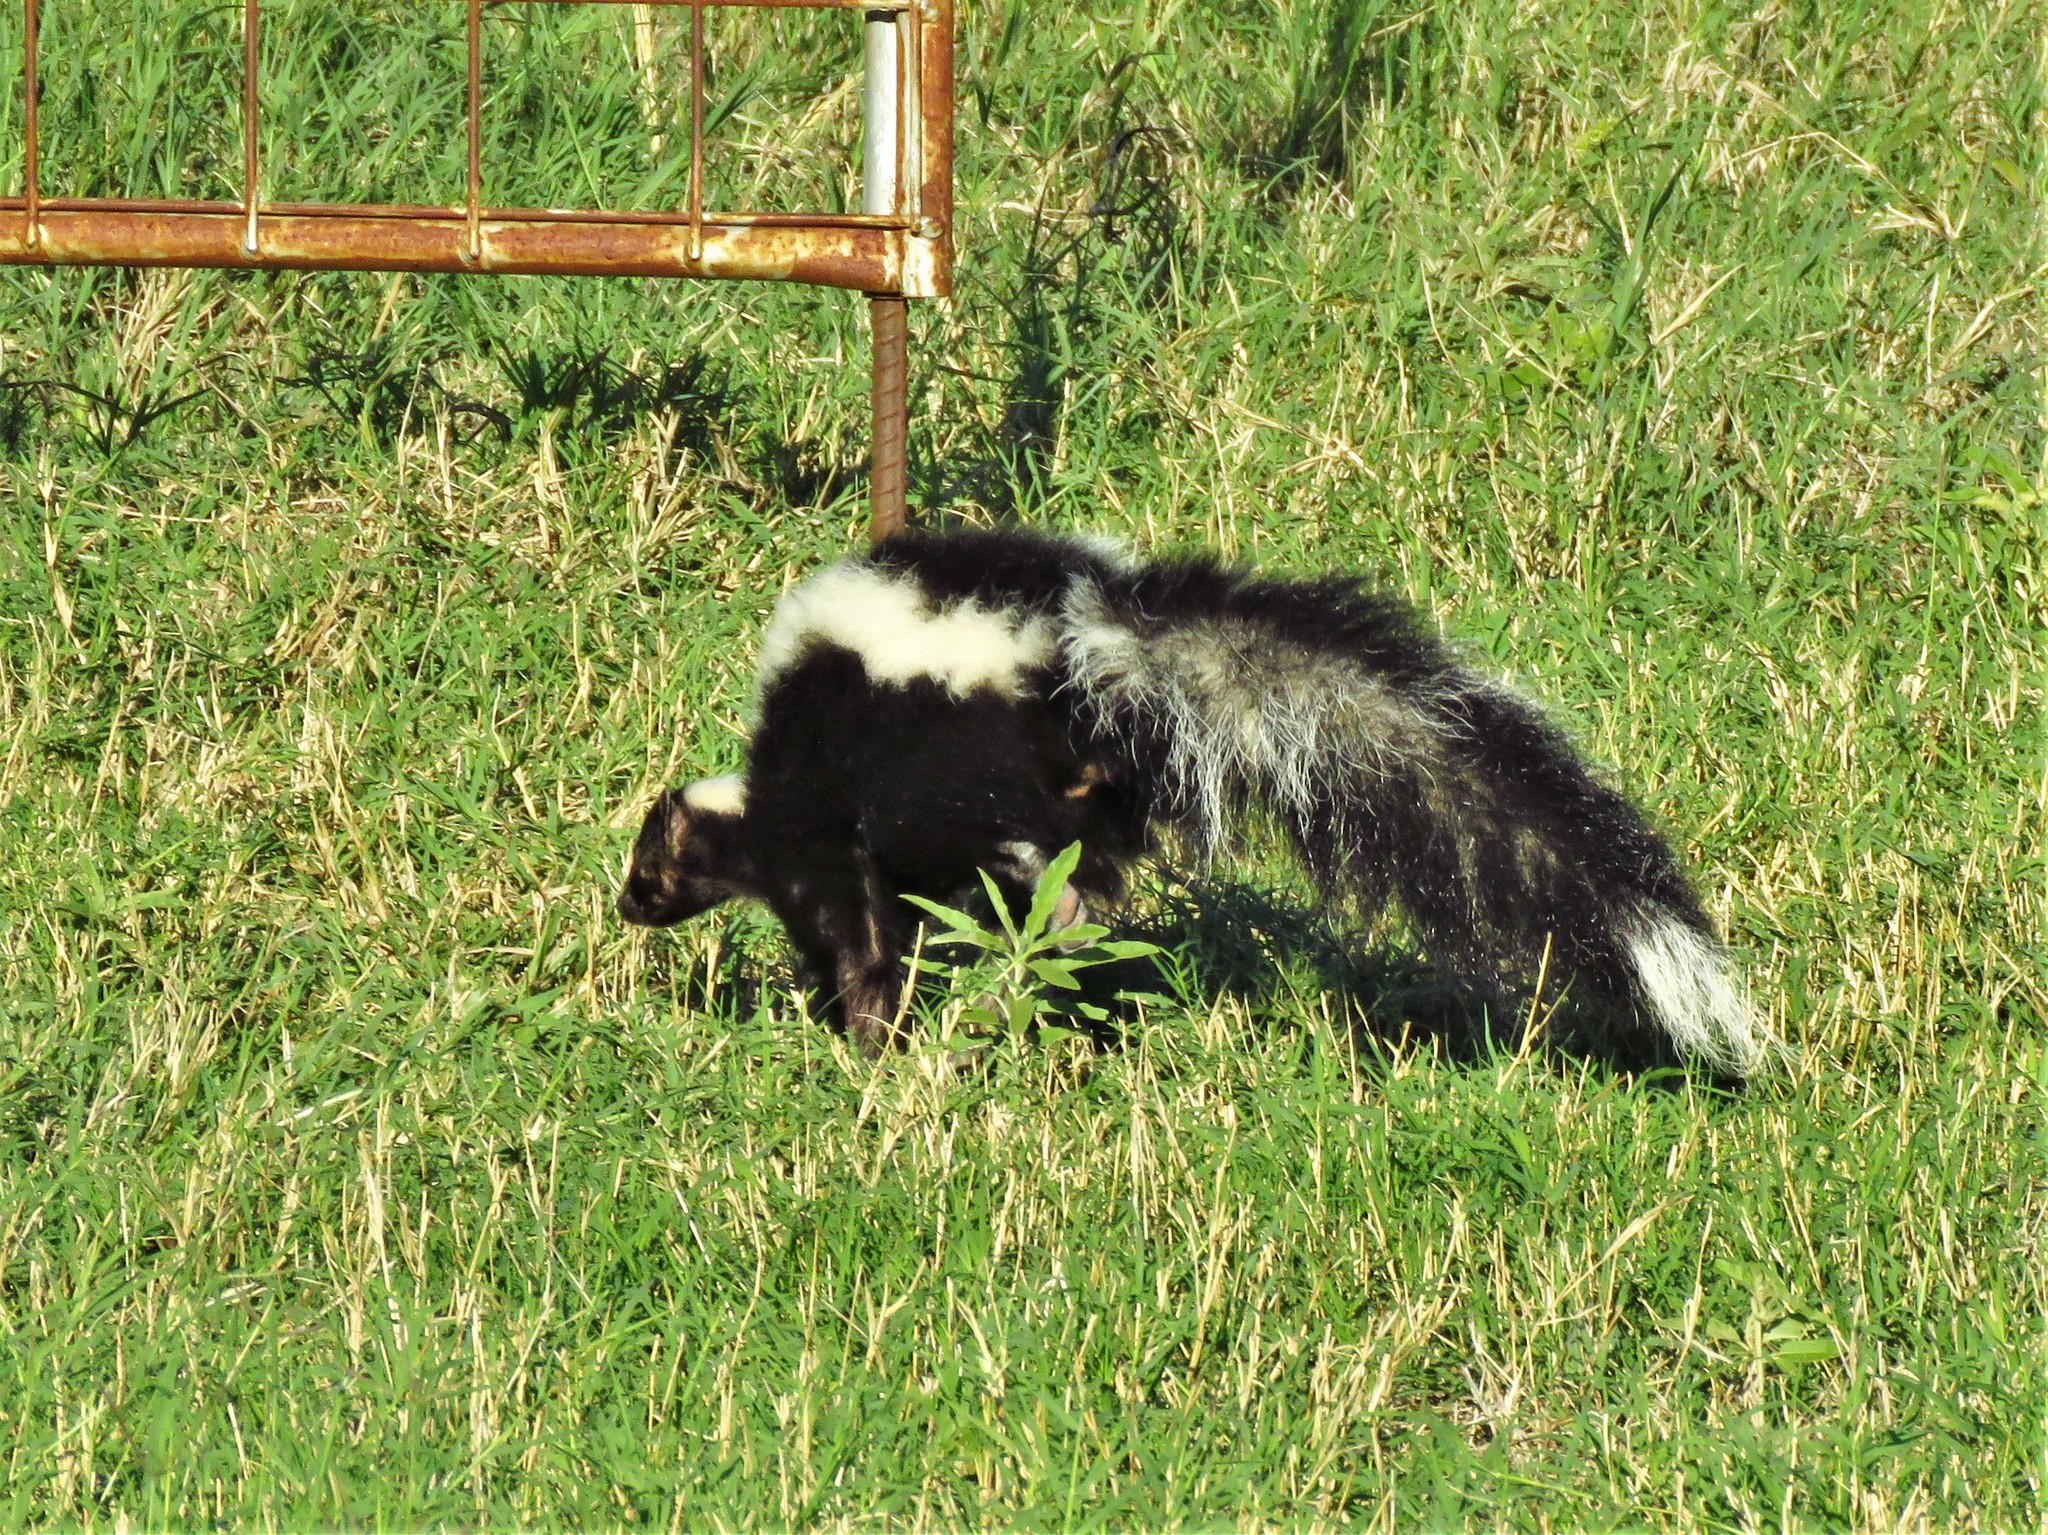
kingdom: Animalia
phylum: Chordata
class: Mammalia
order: Carnivora
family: Mephitidae
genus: Mephitis
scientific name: Mephitis mephitis
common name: Striped skunk
